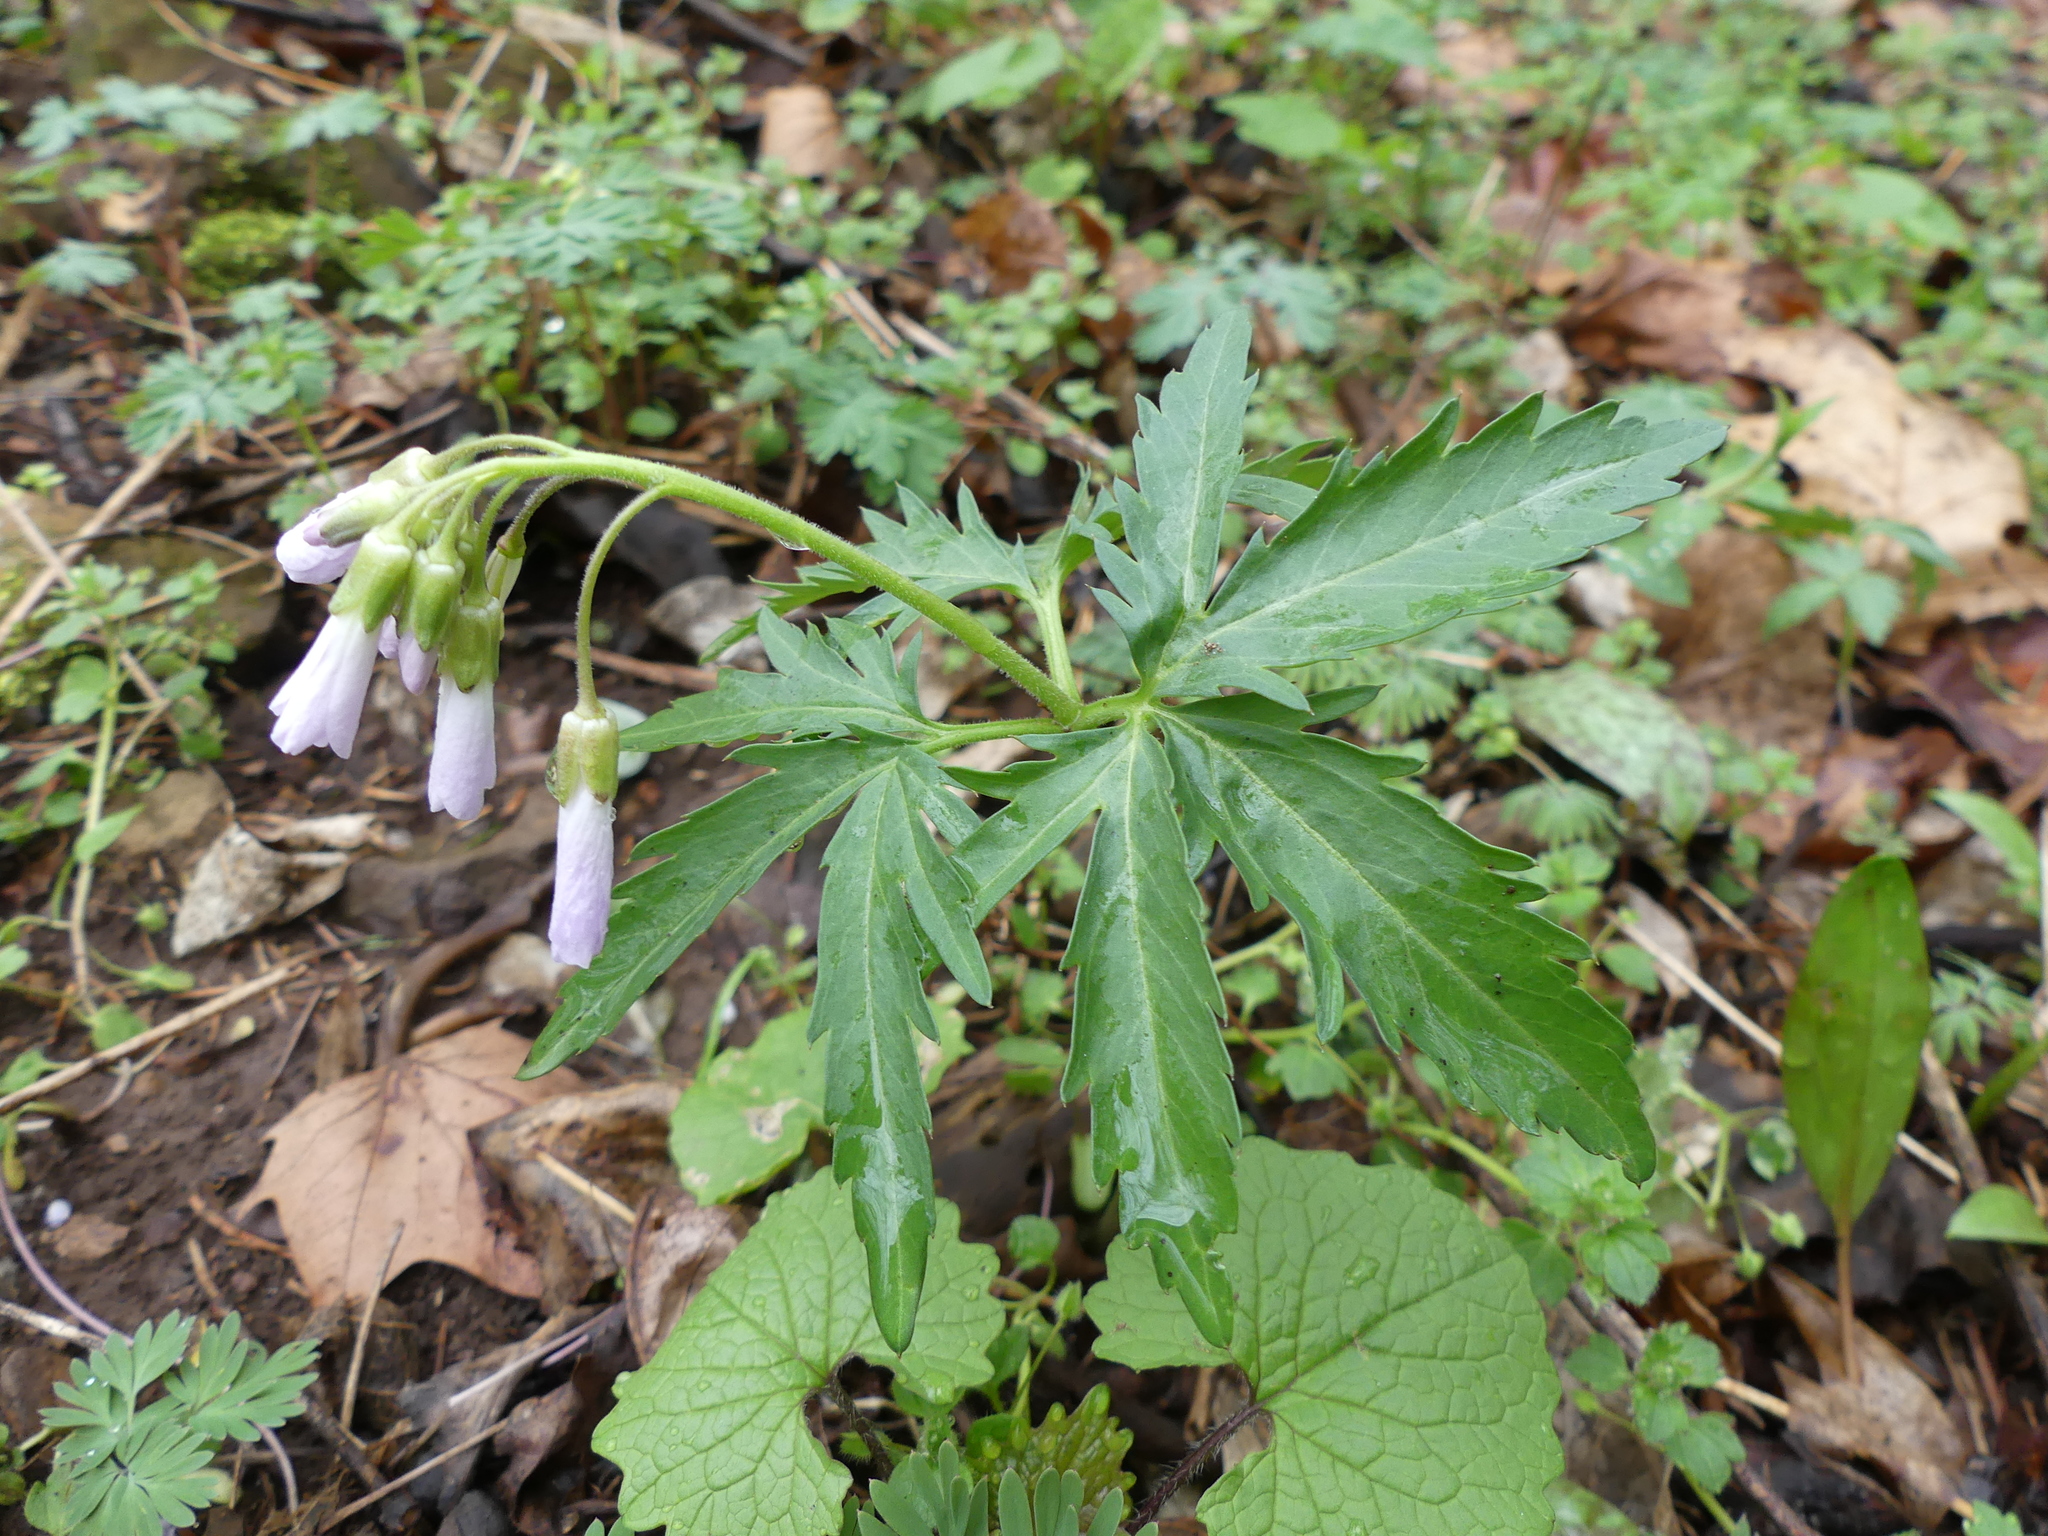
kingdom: Plantae
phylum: Tracheophyta
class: Magnoliopsida
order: Brassicales
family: Brassicaceae
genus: Cardamine
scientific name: Cardamine concatenata
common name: Cut-leaf toothcup
